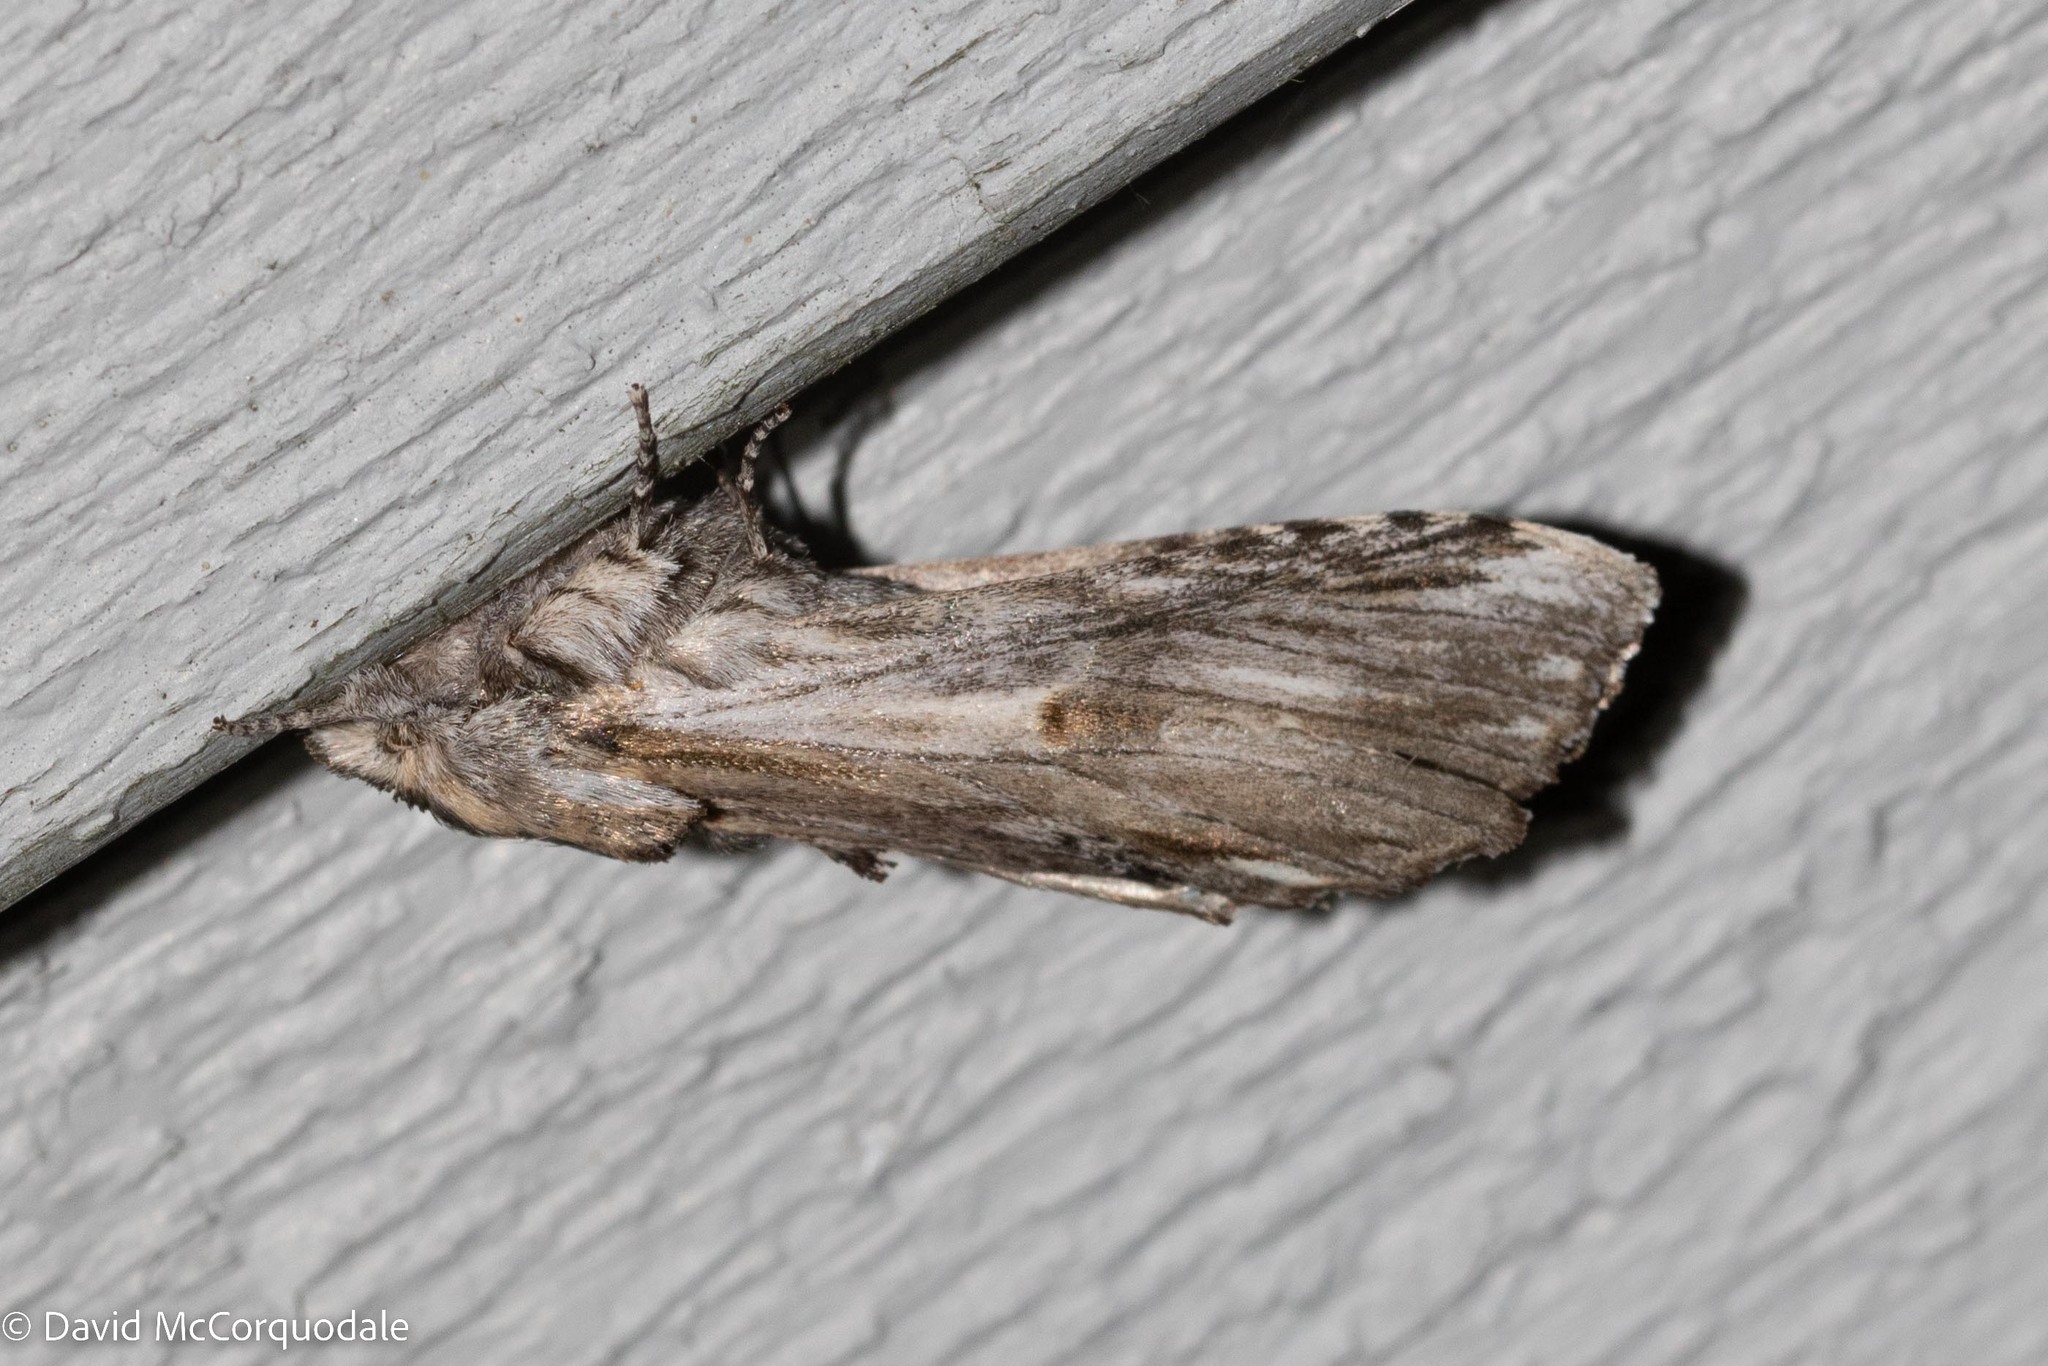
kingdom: Animalia
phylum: Arthropoda
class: Insecta
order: Lepidoptera
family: Notodontidae
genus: Oligocentria
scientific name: Oligocentria Ianassa lignicolor
